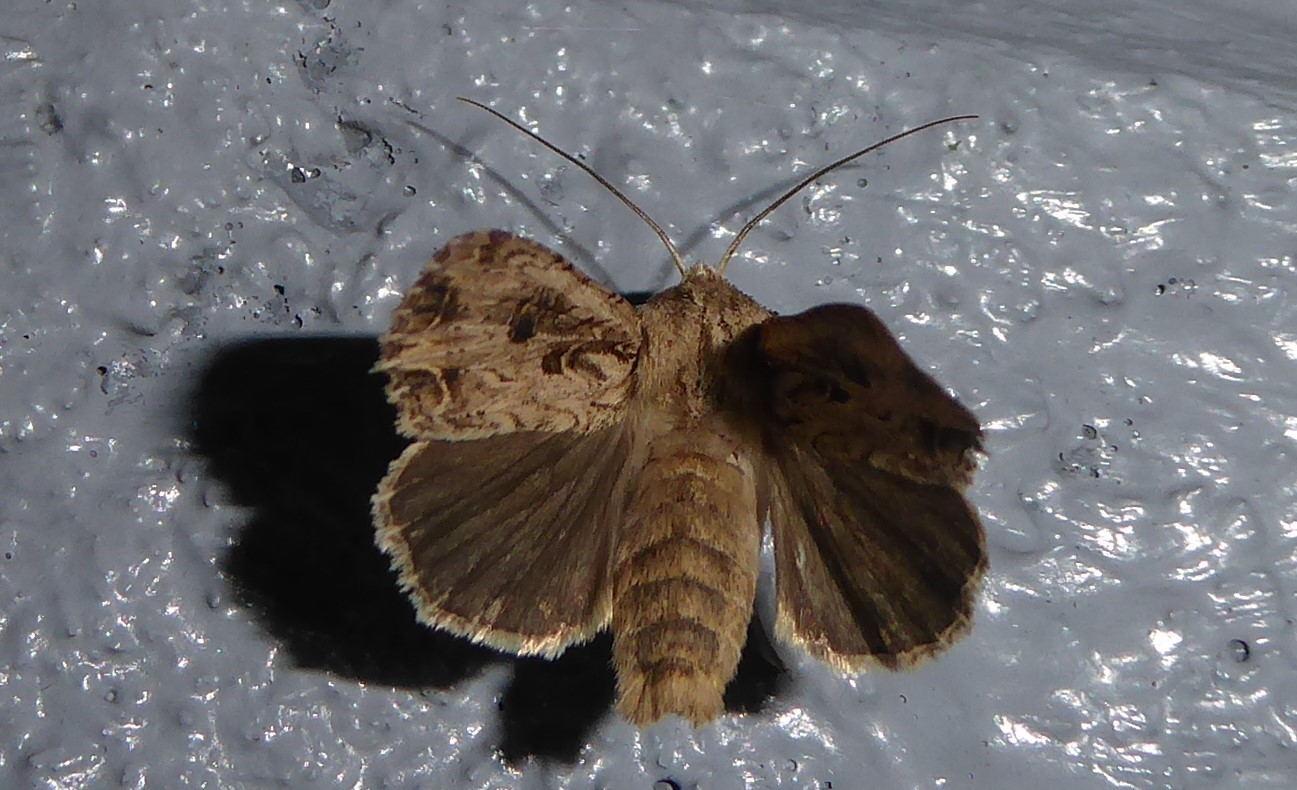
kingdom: Animalia
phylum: Arthropoda
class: Insecta
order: Lepidoptera
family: Noctuidae
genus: Ichneutica
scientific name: Ichneutica lignana
